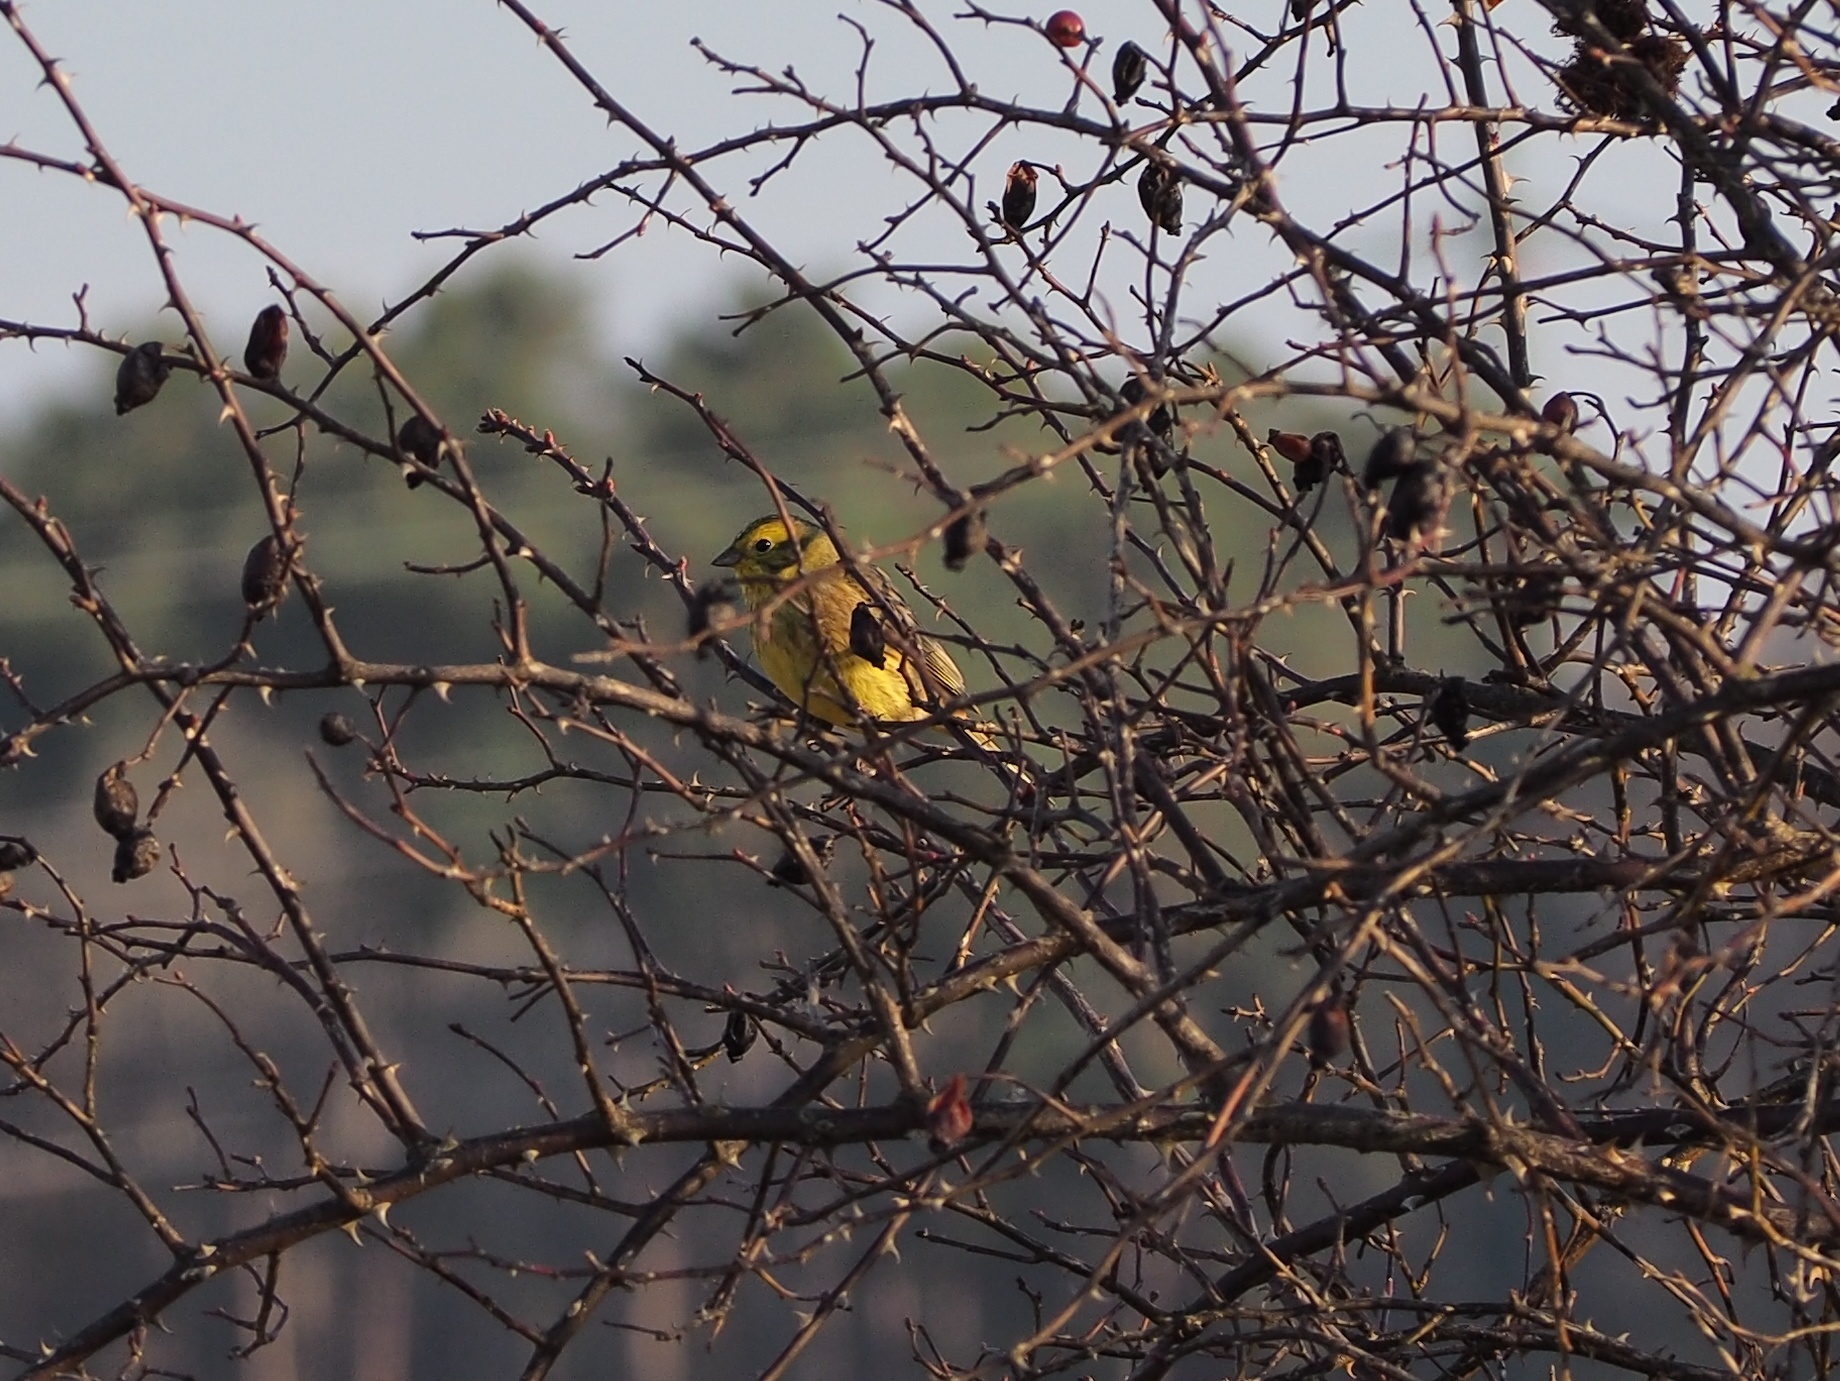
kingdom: Animalia
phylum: Chordata
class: Aves
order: Passeriformes
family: Emberizidae
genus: Emberiza
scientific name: Emberiza citrinella
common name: Yellowhammer
